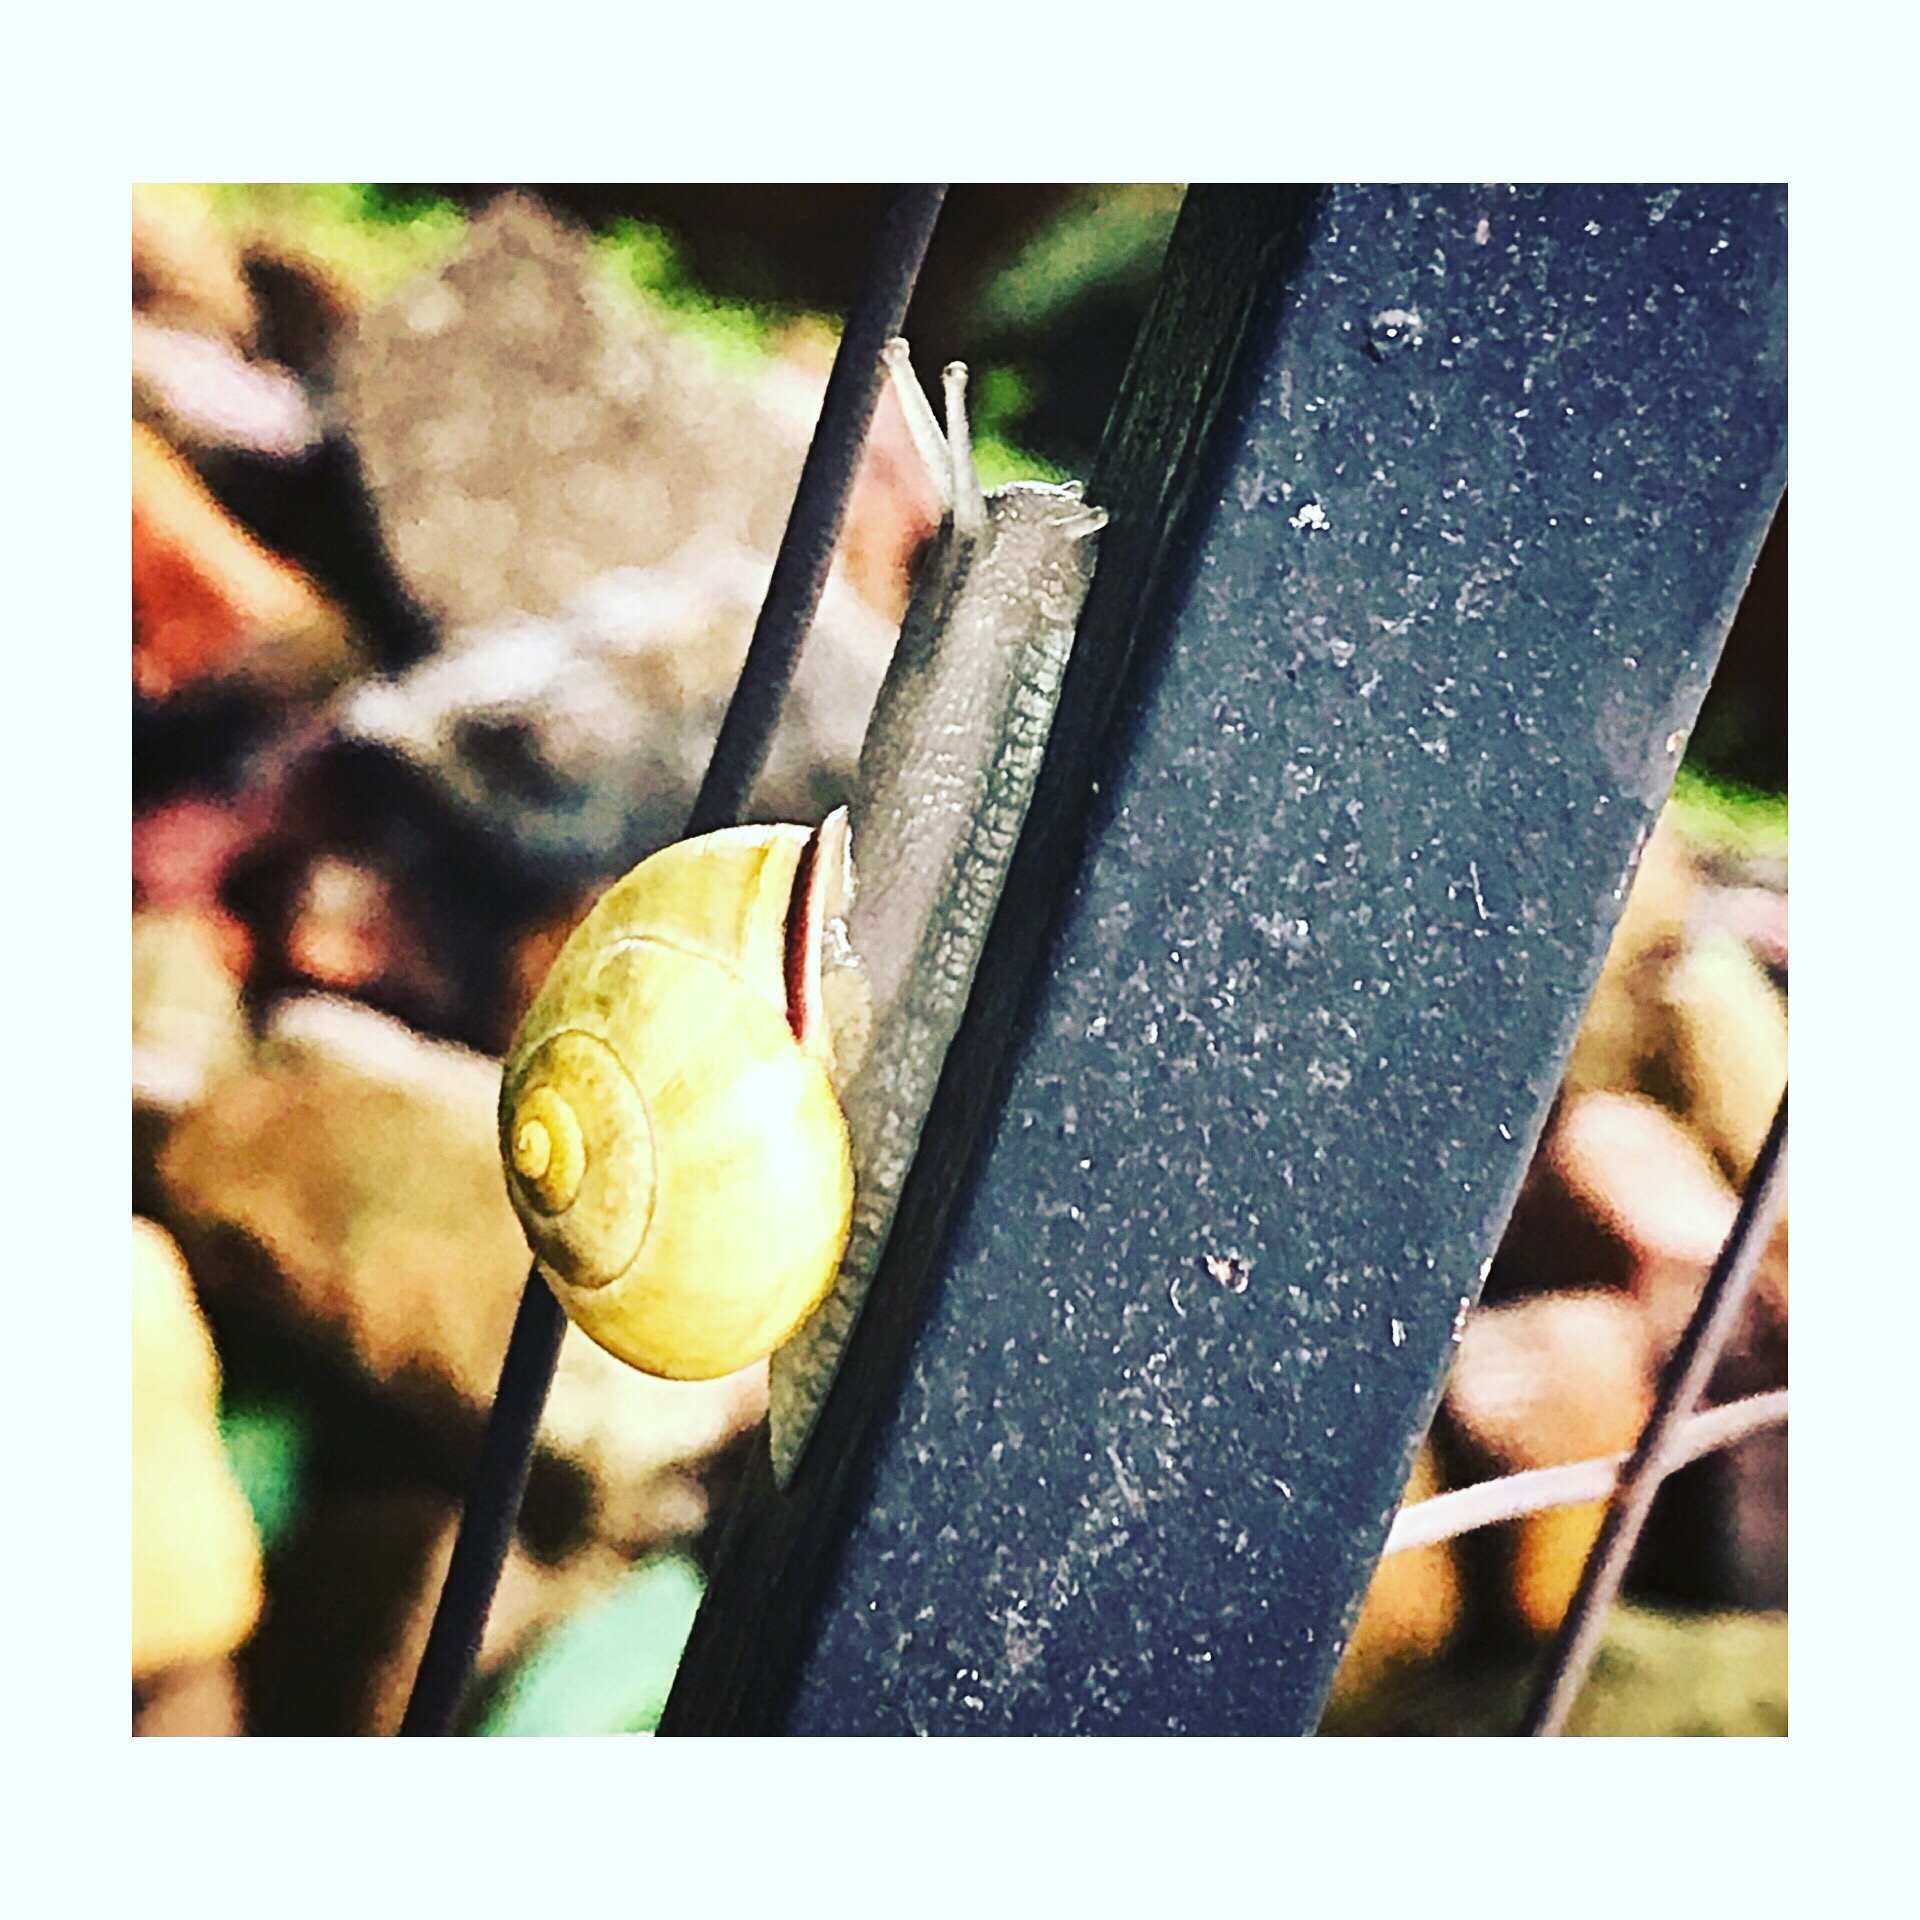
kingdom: Animalia
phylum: Mollusca
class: Gastropoda
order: Stylommatophora
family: Helicidae
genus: Cepaea
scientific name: Cepaea nemoralis
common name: Grovesnail
